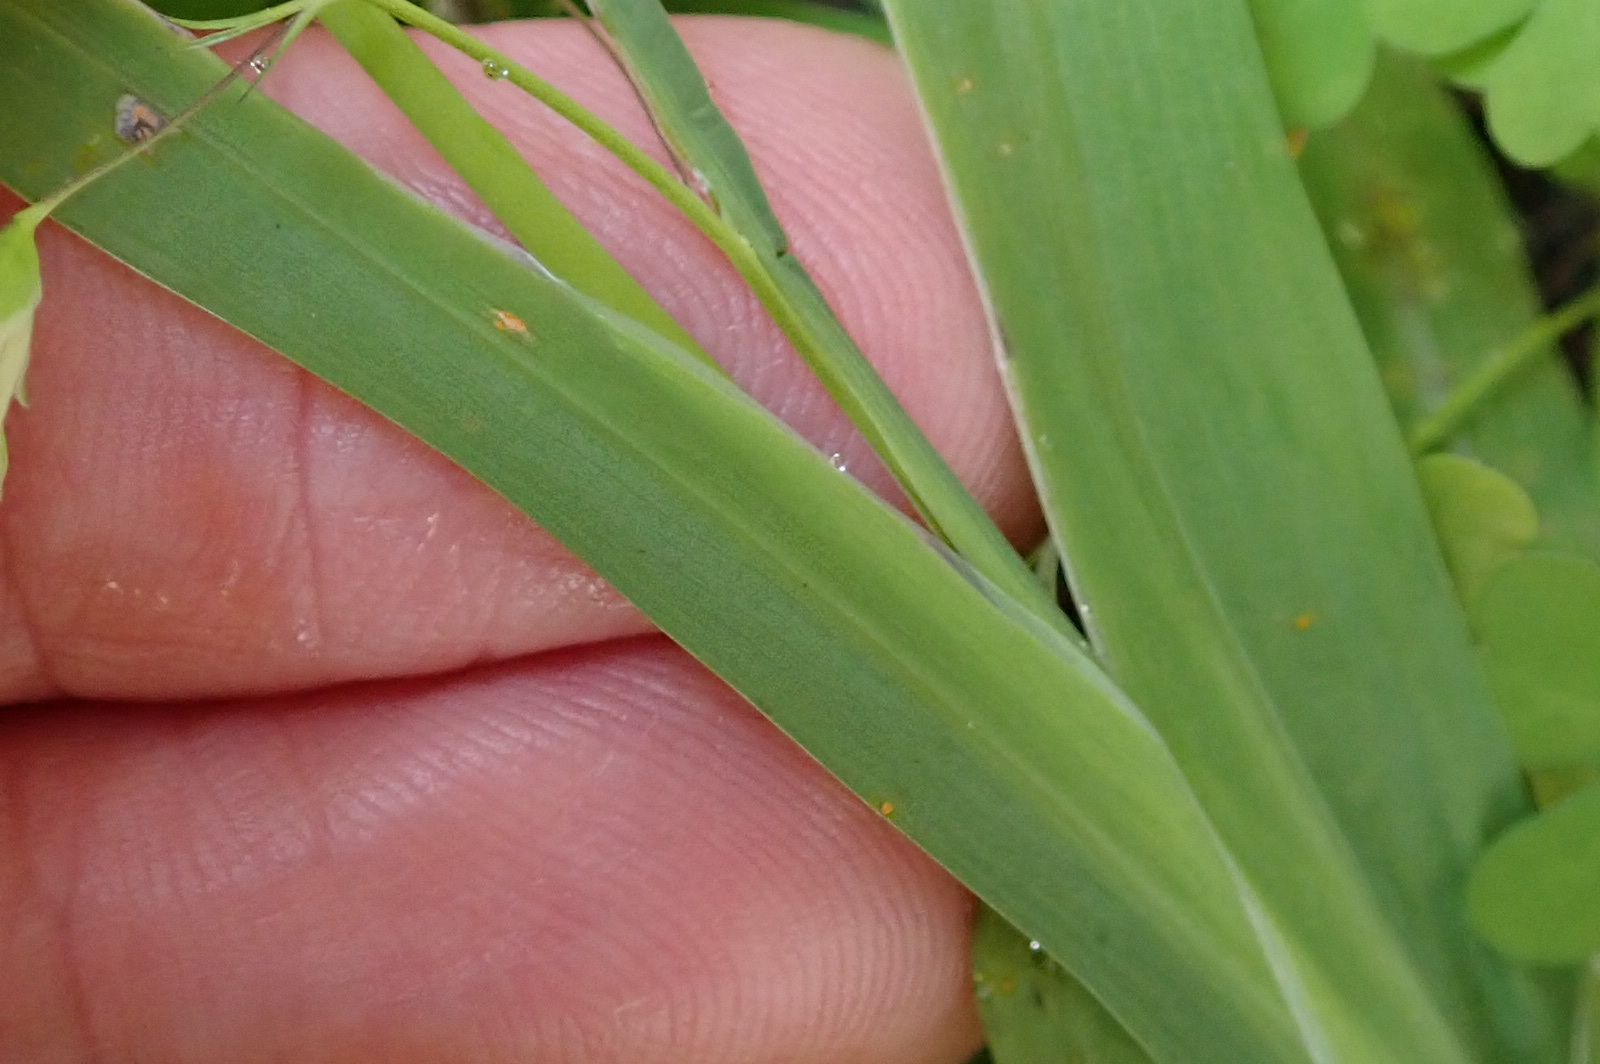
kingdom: Plantae
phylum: Tracheophyta
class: Liliopsida
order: Asparagales
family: Iridaceae
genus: Melasphaerula
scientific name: Melasphaerula graminea
